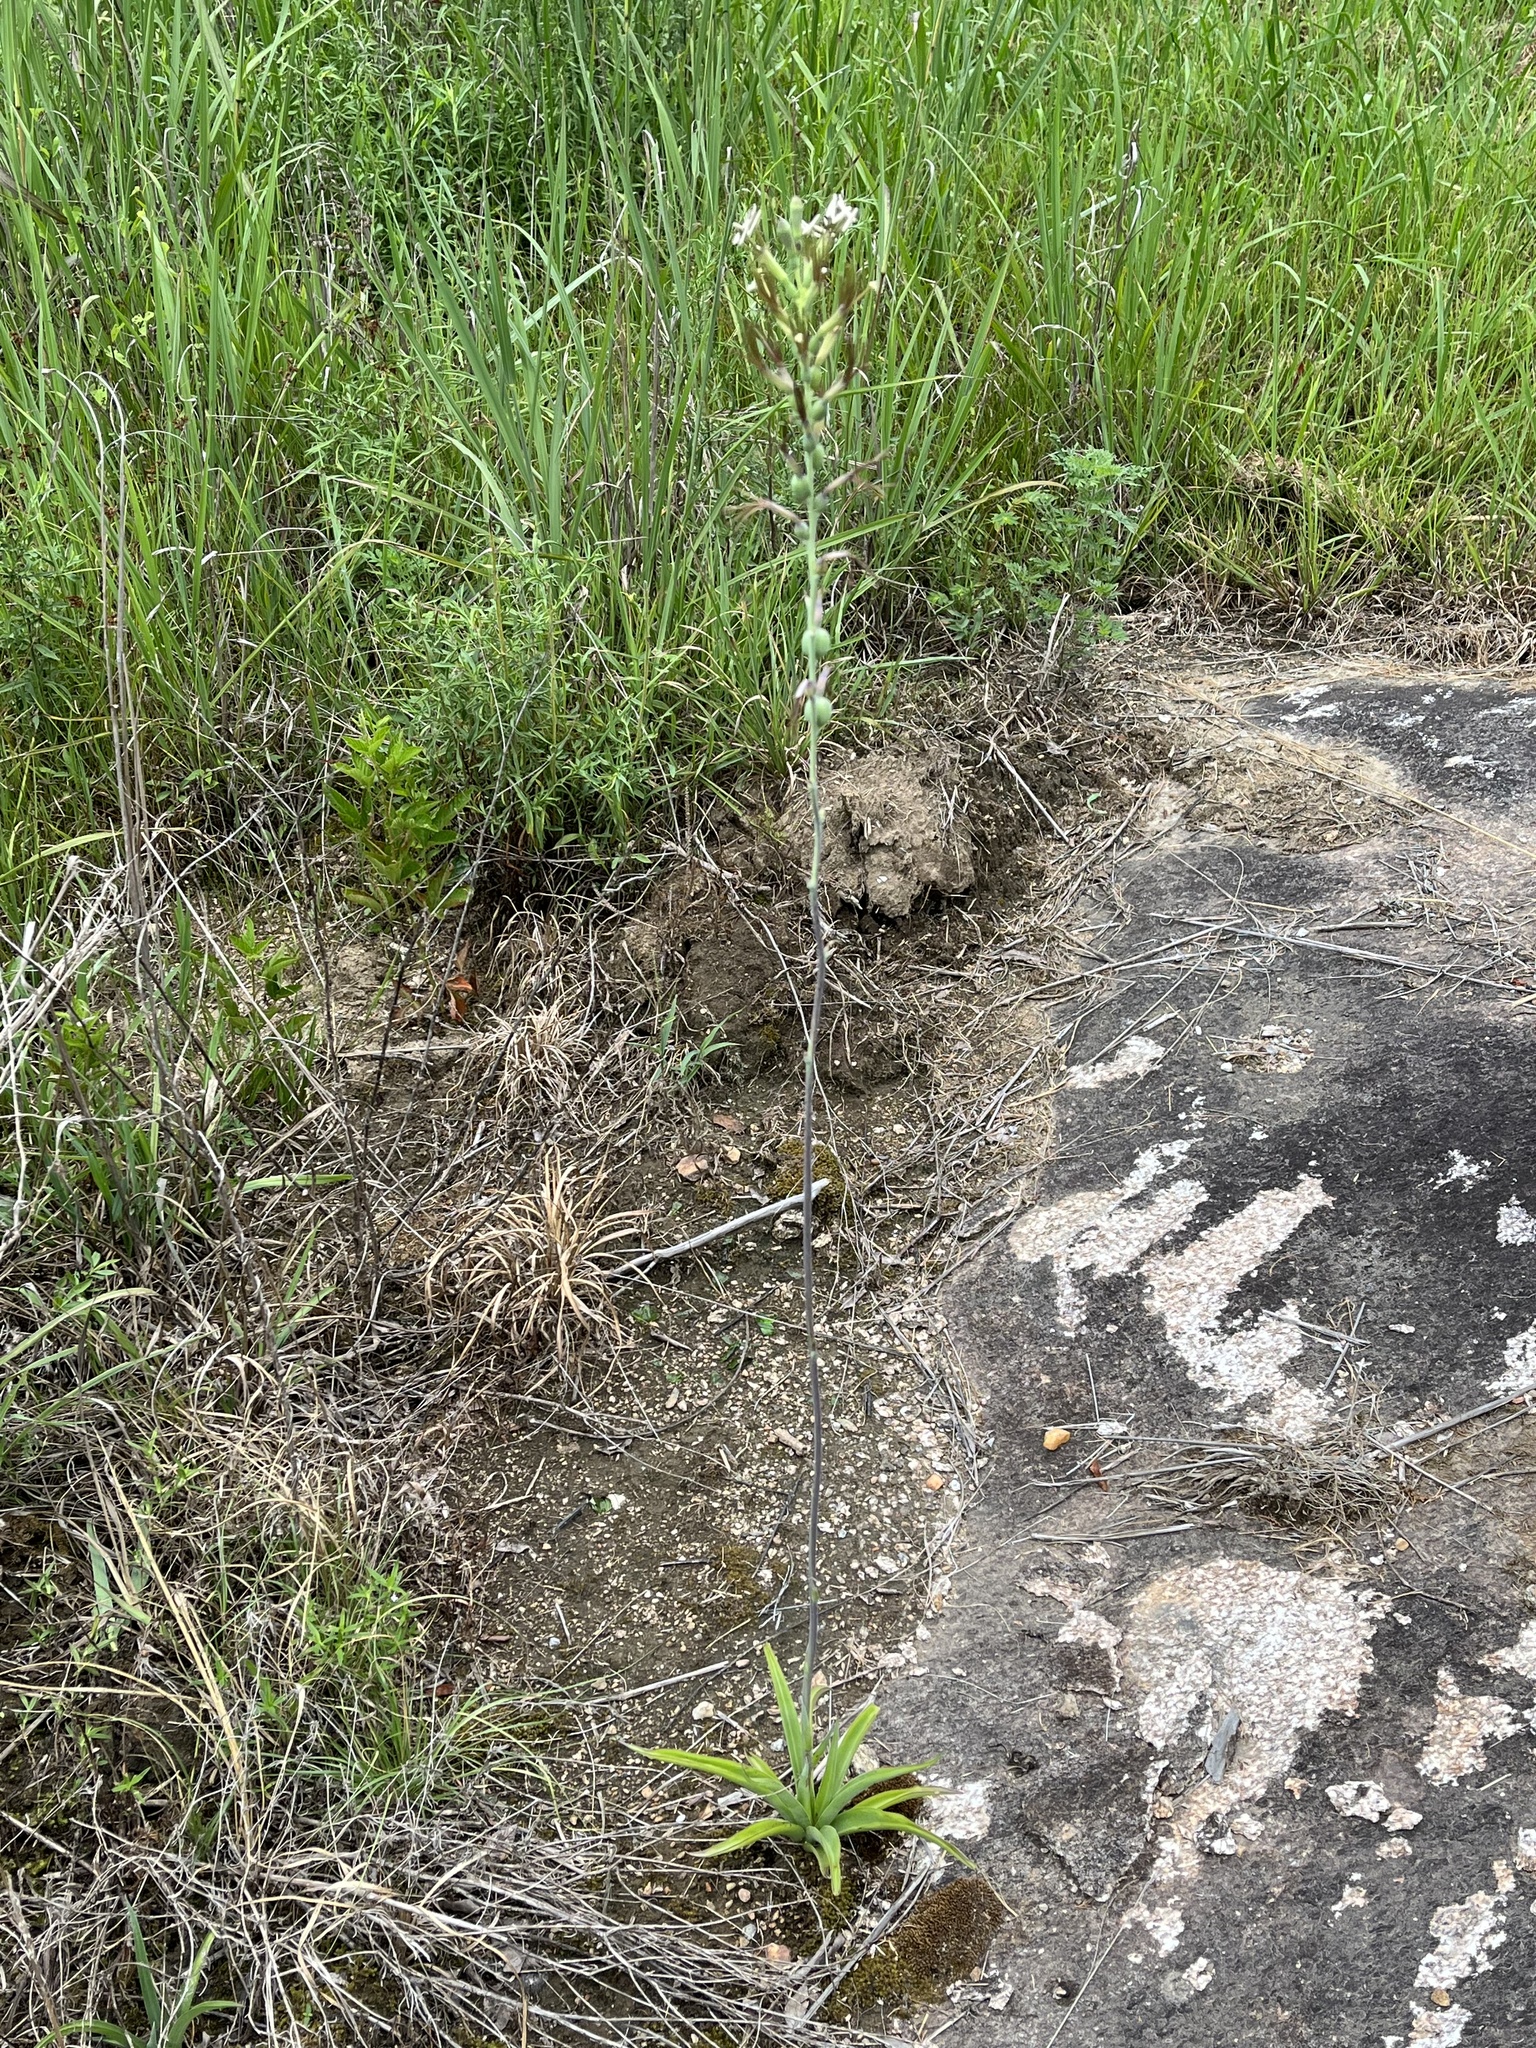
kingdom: Plantae
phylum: Tracheophyta
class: Liliopsida
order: Asparagales
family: Asparagaceae
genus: Agave
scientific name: Agave virginica
